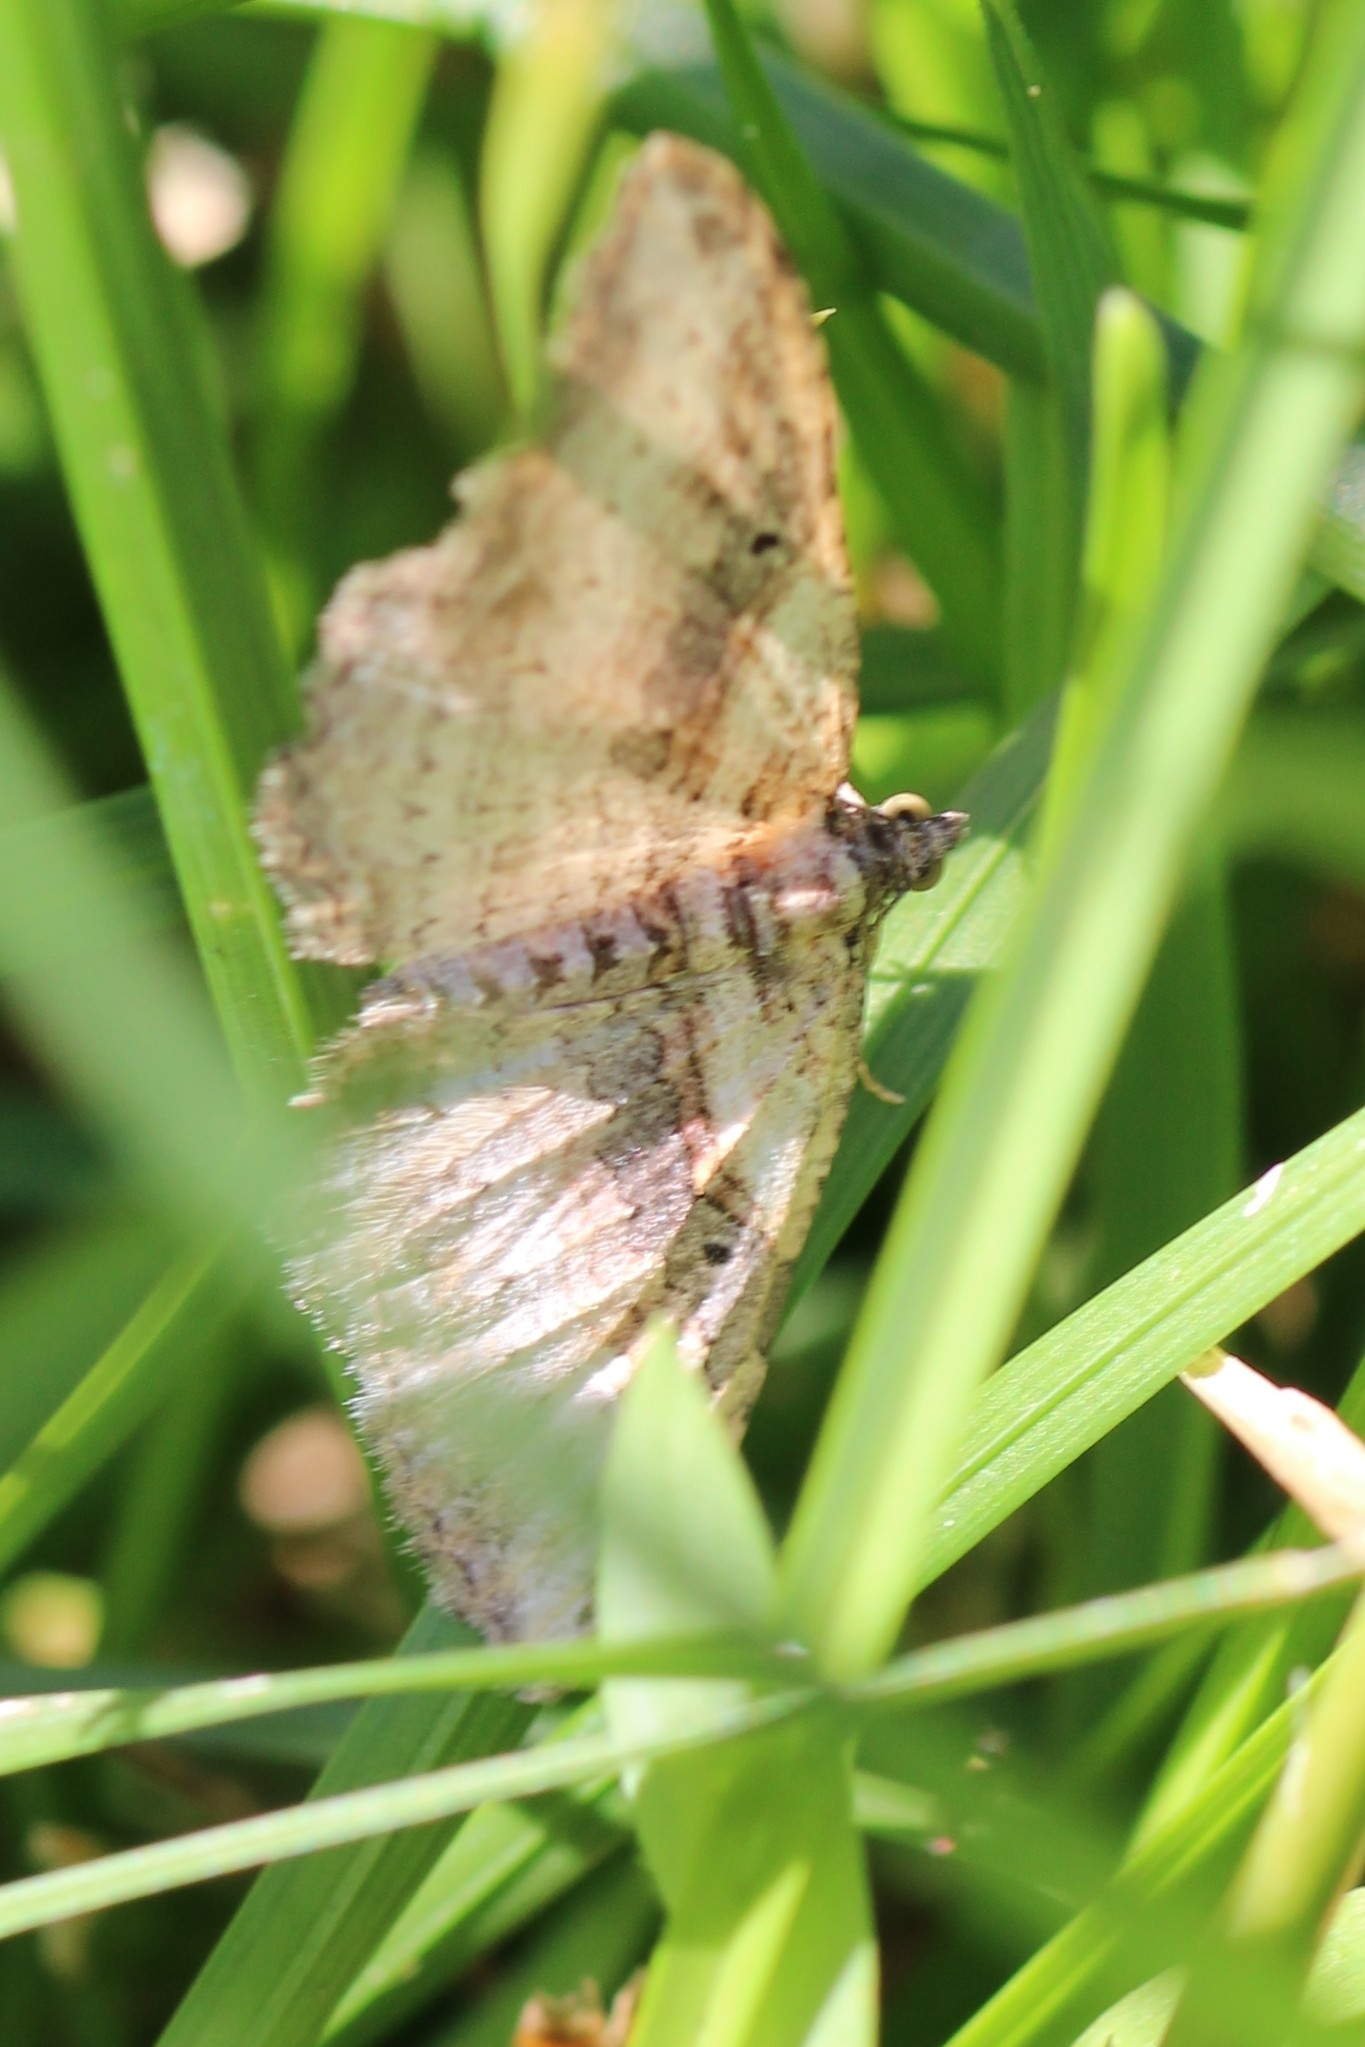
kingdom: Animalia
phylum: Arthropoda
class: Insecta
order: Lepidoptera
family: Geometridae
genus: Costaconvexa
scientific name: Costaconvexa centrostrigaria
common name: Bent-line carpet
